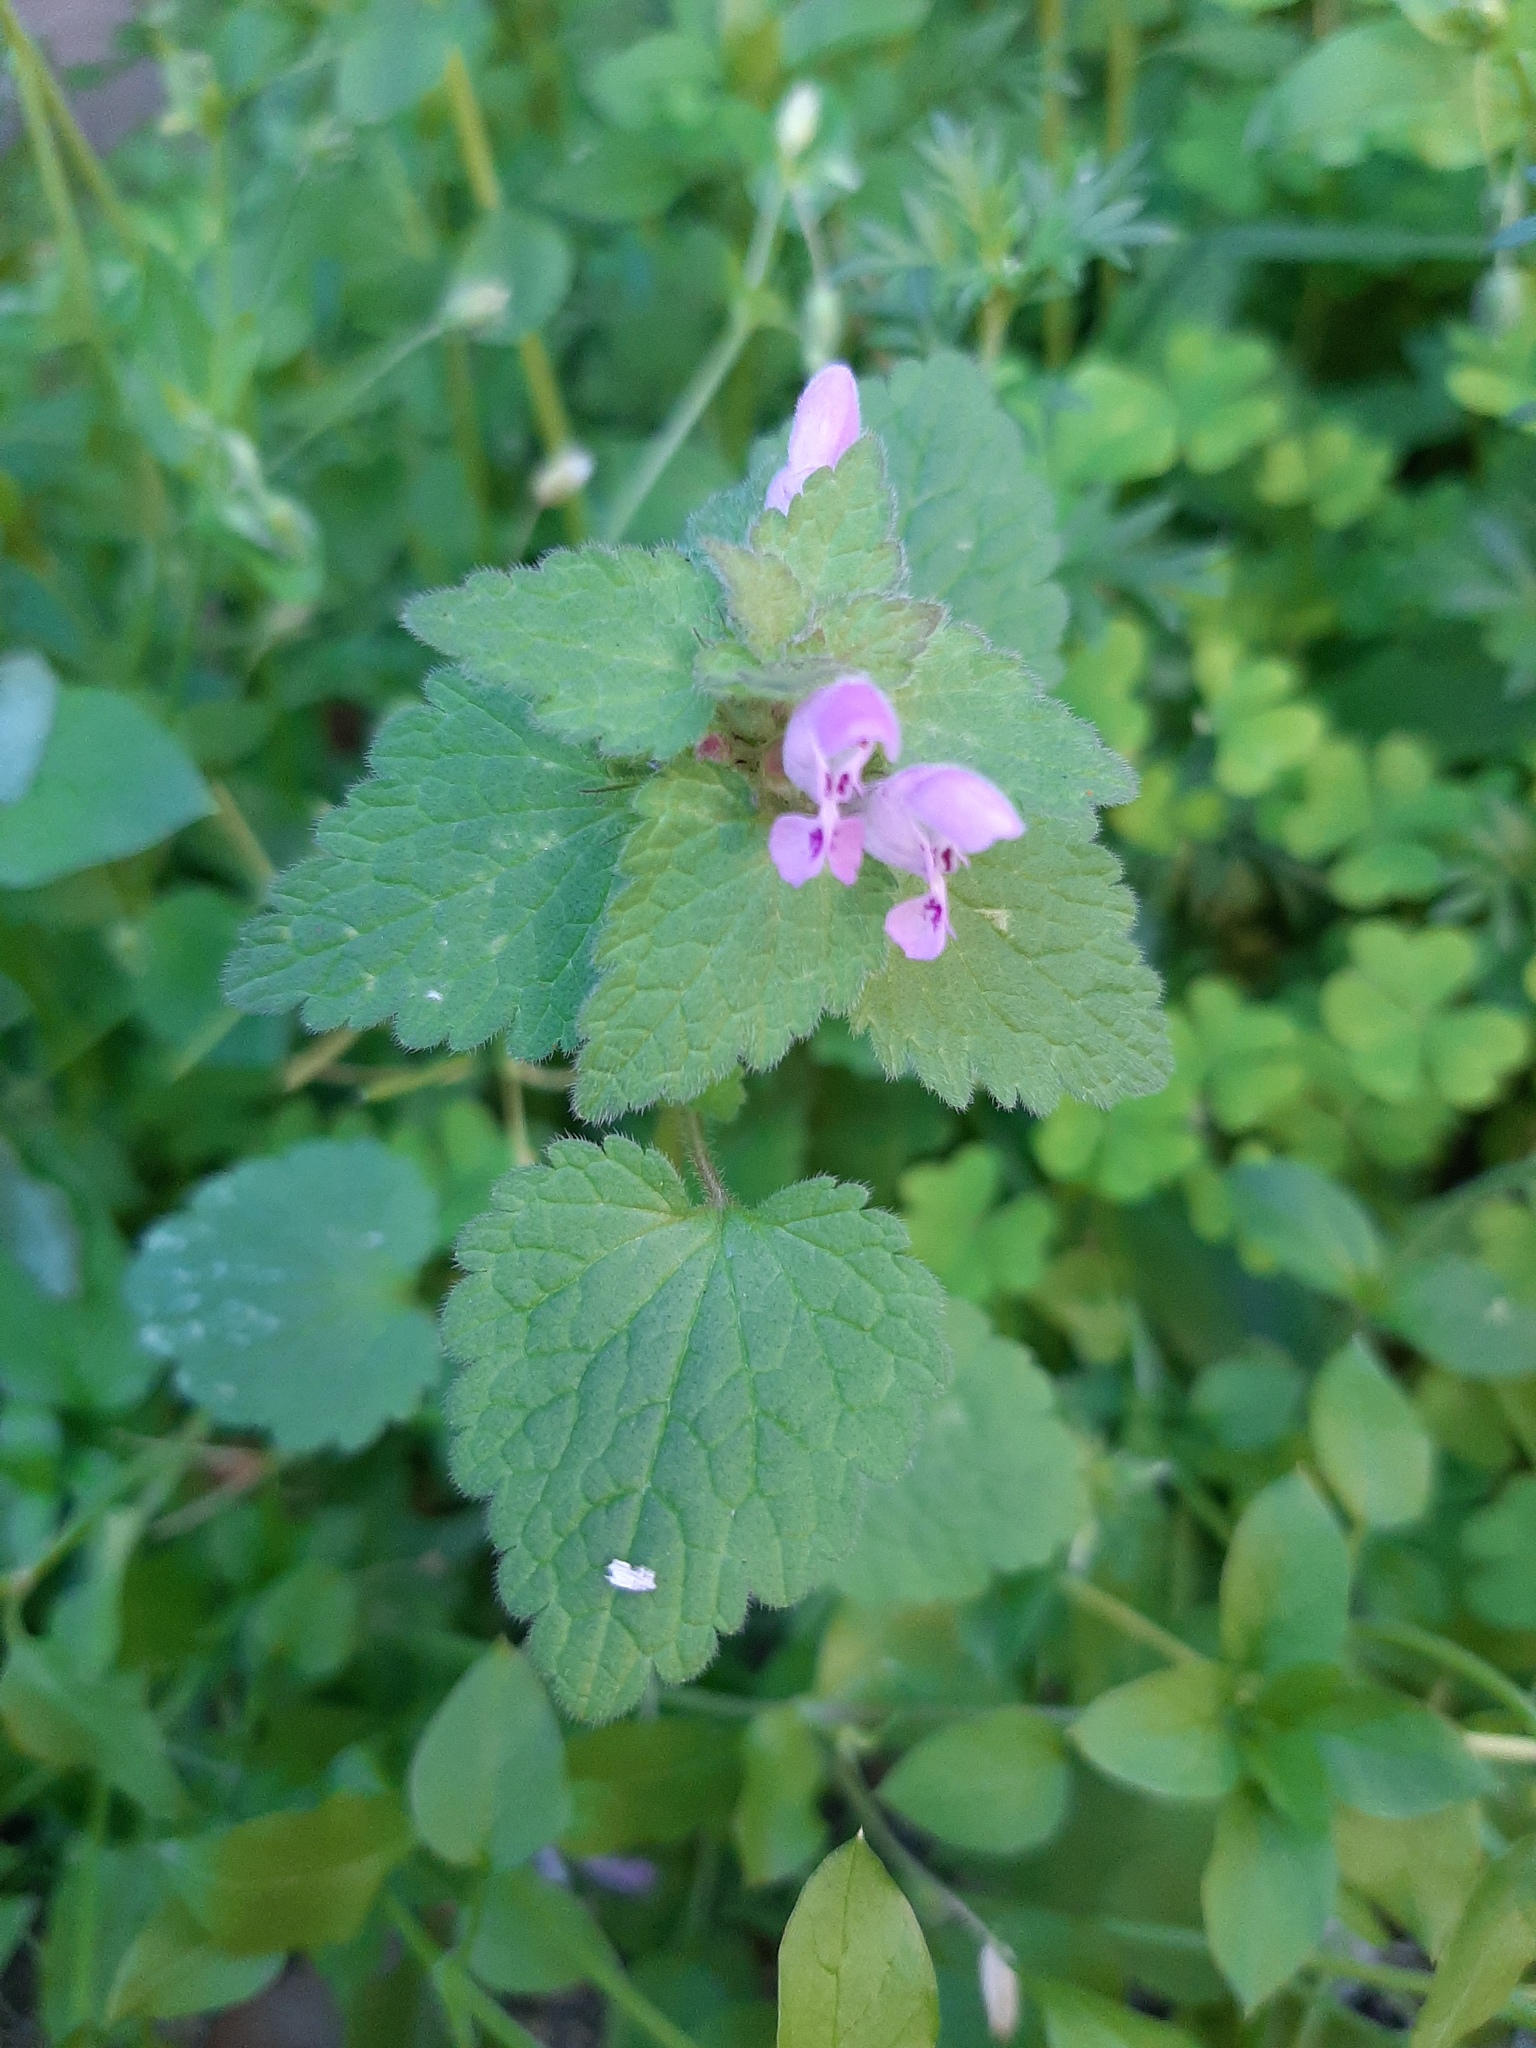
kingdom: Plantae
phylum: Tracheophyta
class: Magnoliopsida
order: Lamiales
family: Lamiaceae
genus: Lamium
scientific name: Lamium purpureum
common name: Red dead-nettle
